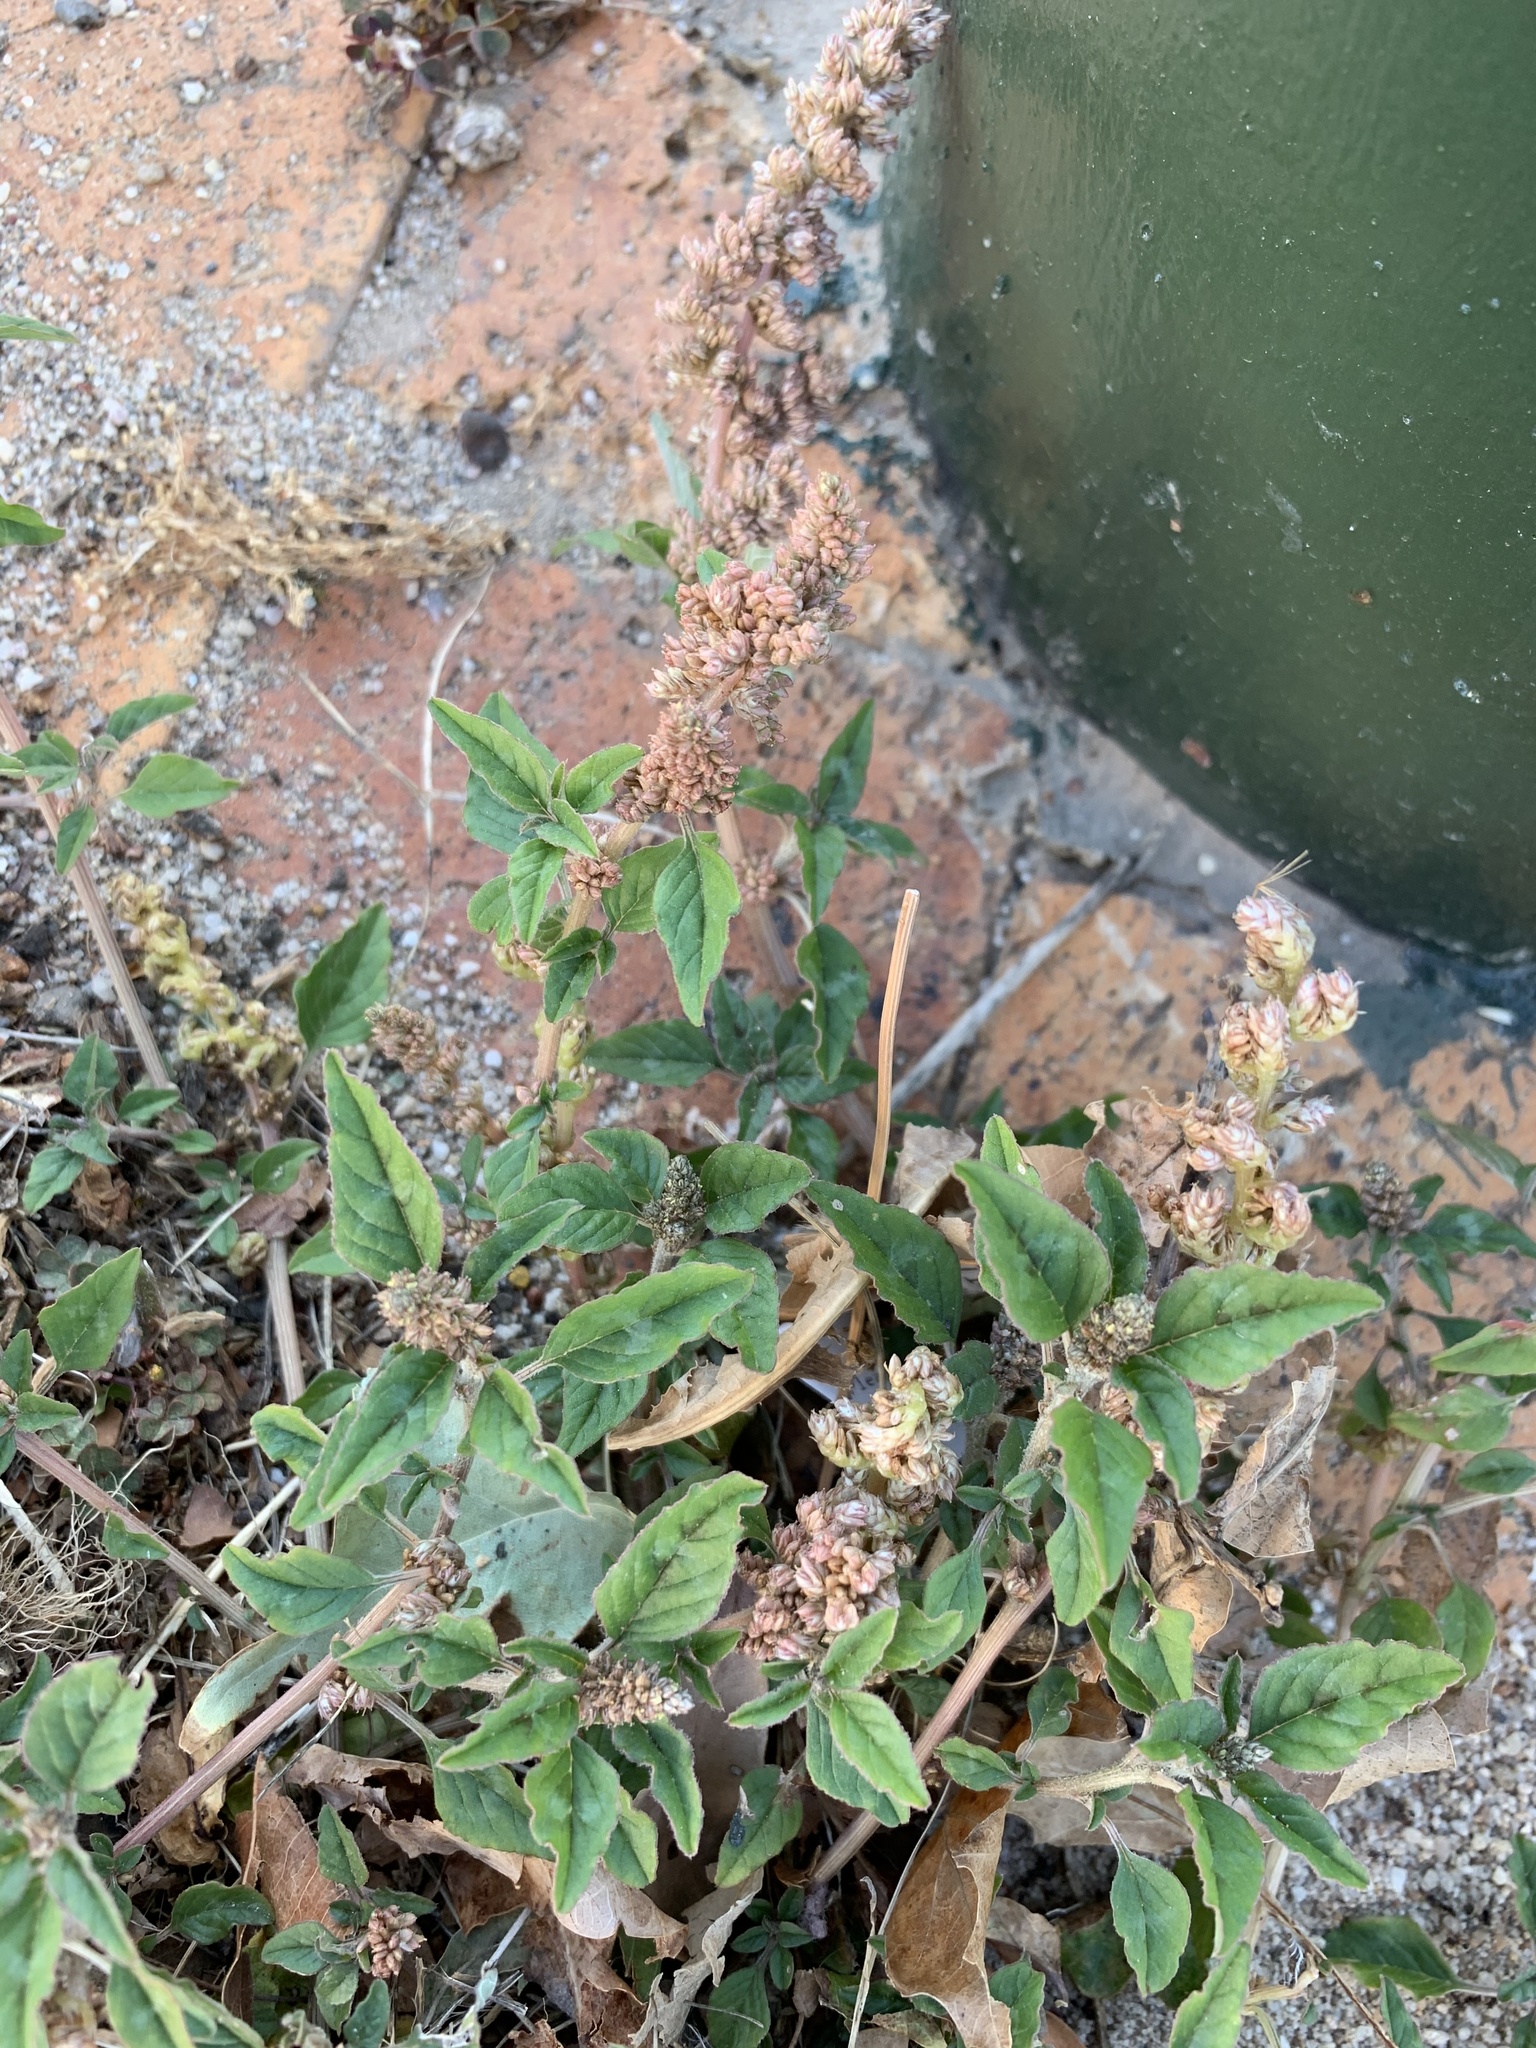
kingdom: Plantae
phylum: Tracheophyta
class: Magnoliopsida
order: Caryophyllales
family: Amaranthaceae
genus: Amaranthus
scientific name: Amaranthus deflexus
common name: Perennial pigweed
